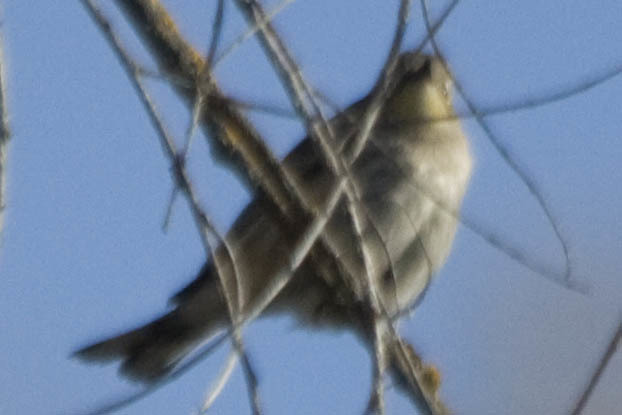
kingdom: Animalia
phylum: Chordata
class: Aves
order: Passeriformes
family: Parulidae
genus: Setophaga
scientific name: Setophaga coronata
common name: Myrtle warbler
